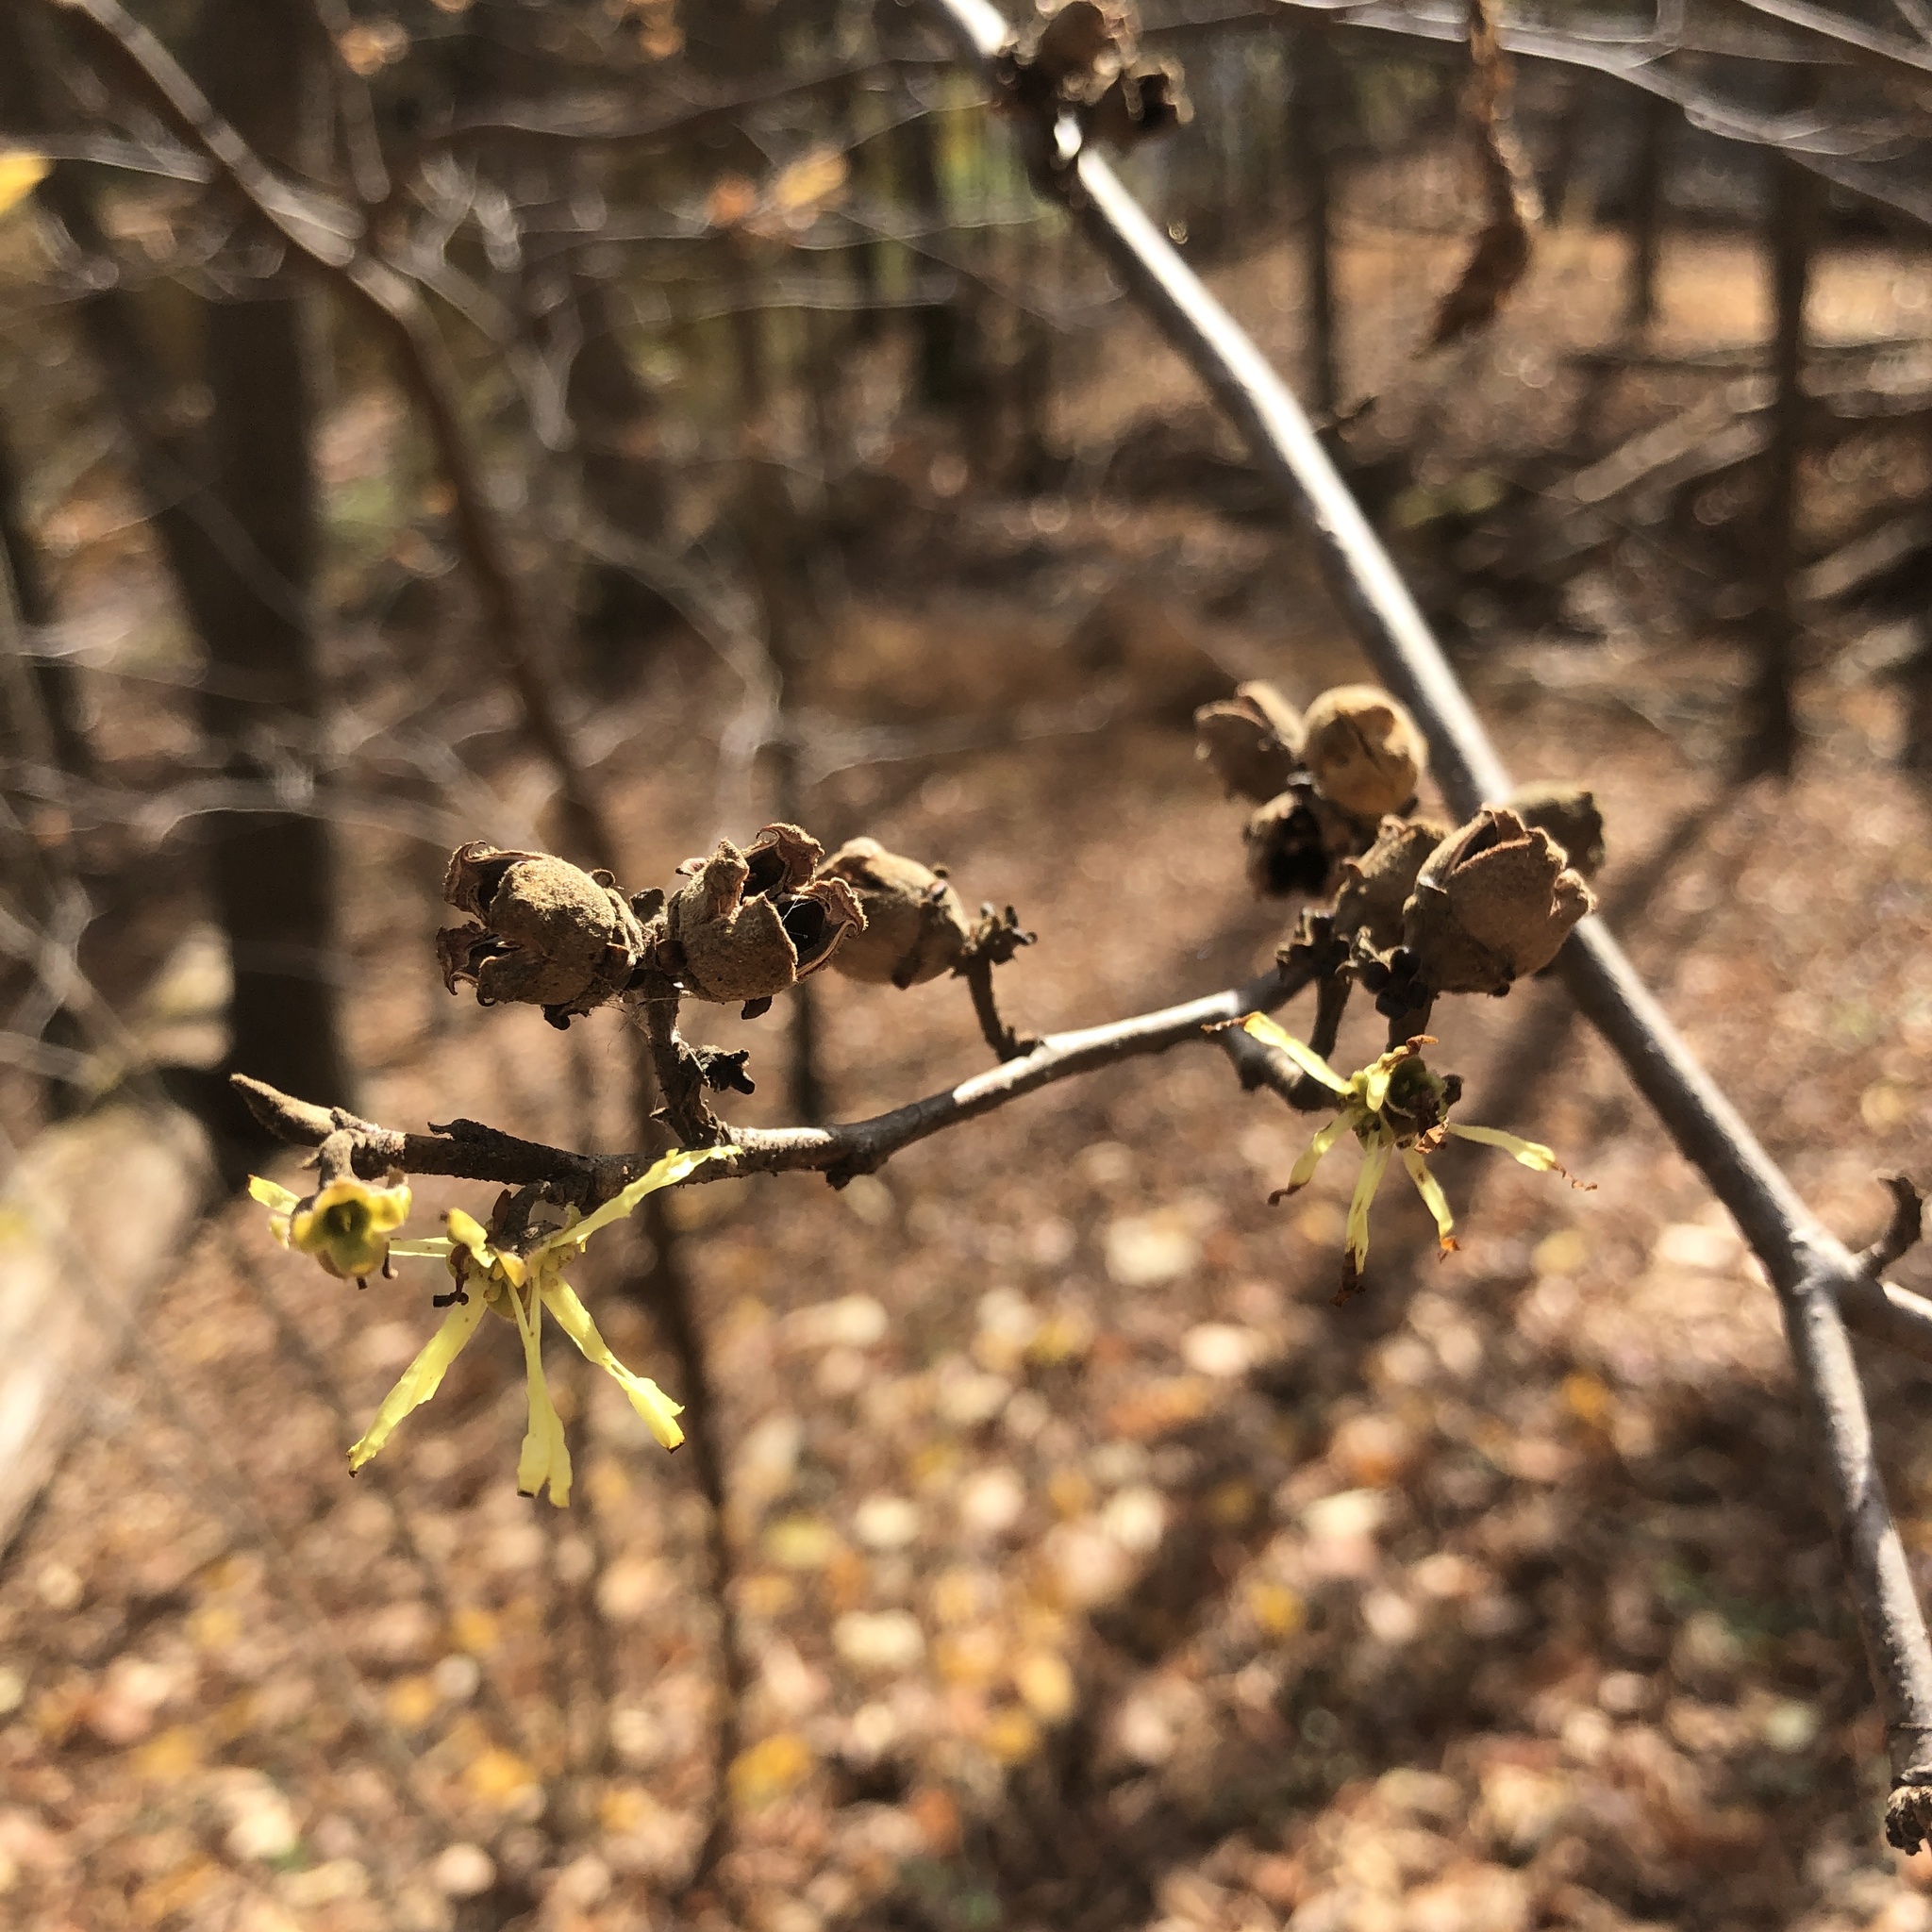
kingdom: Plantae
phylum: Tracheophyta
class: Magnoliopsida
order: Saxifragales
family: Hamamelidaceae
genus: Hamamelis
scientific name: Hamamelis virginiana
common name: Witch-hazel
